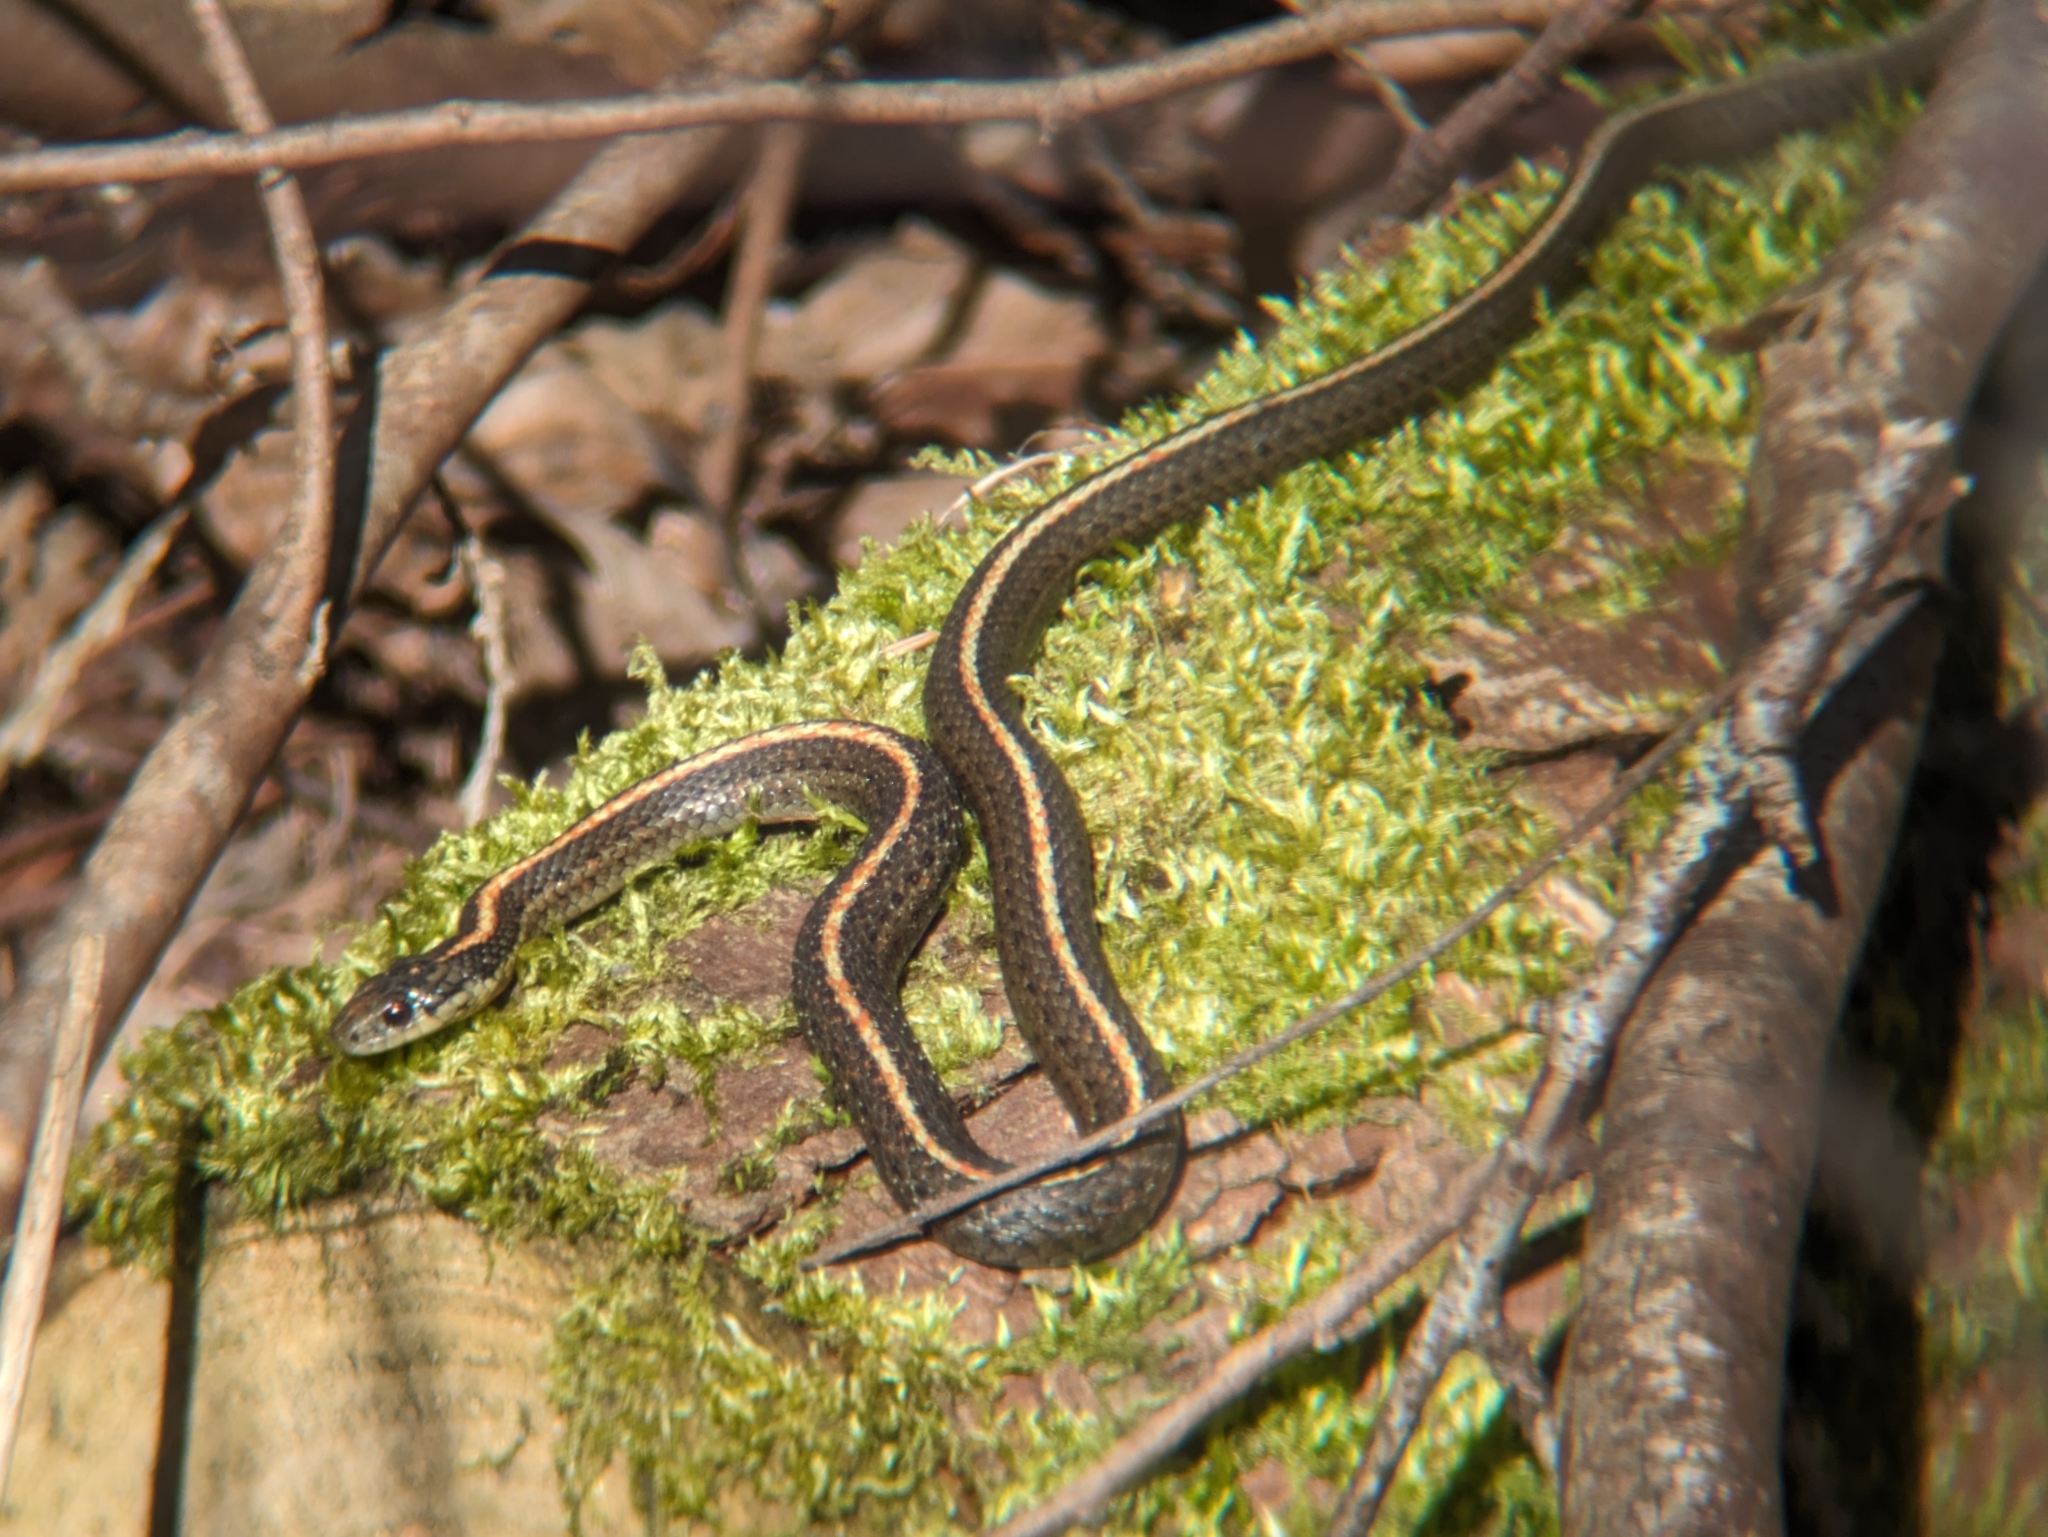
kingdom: Animalia
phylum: Chordata
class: Squamata
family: Colubridae
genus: Thamnophis
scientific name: Thamnophis ordinoides
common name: Northwestern garter snake
